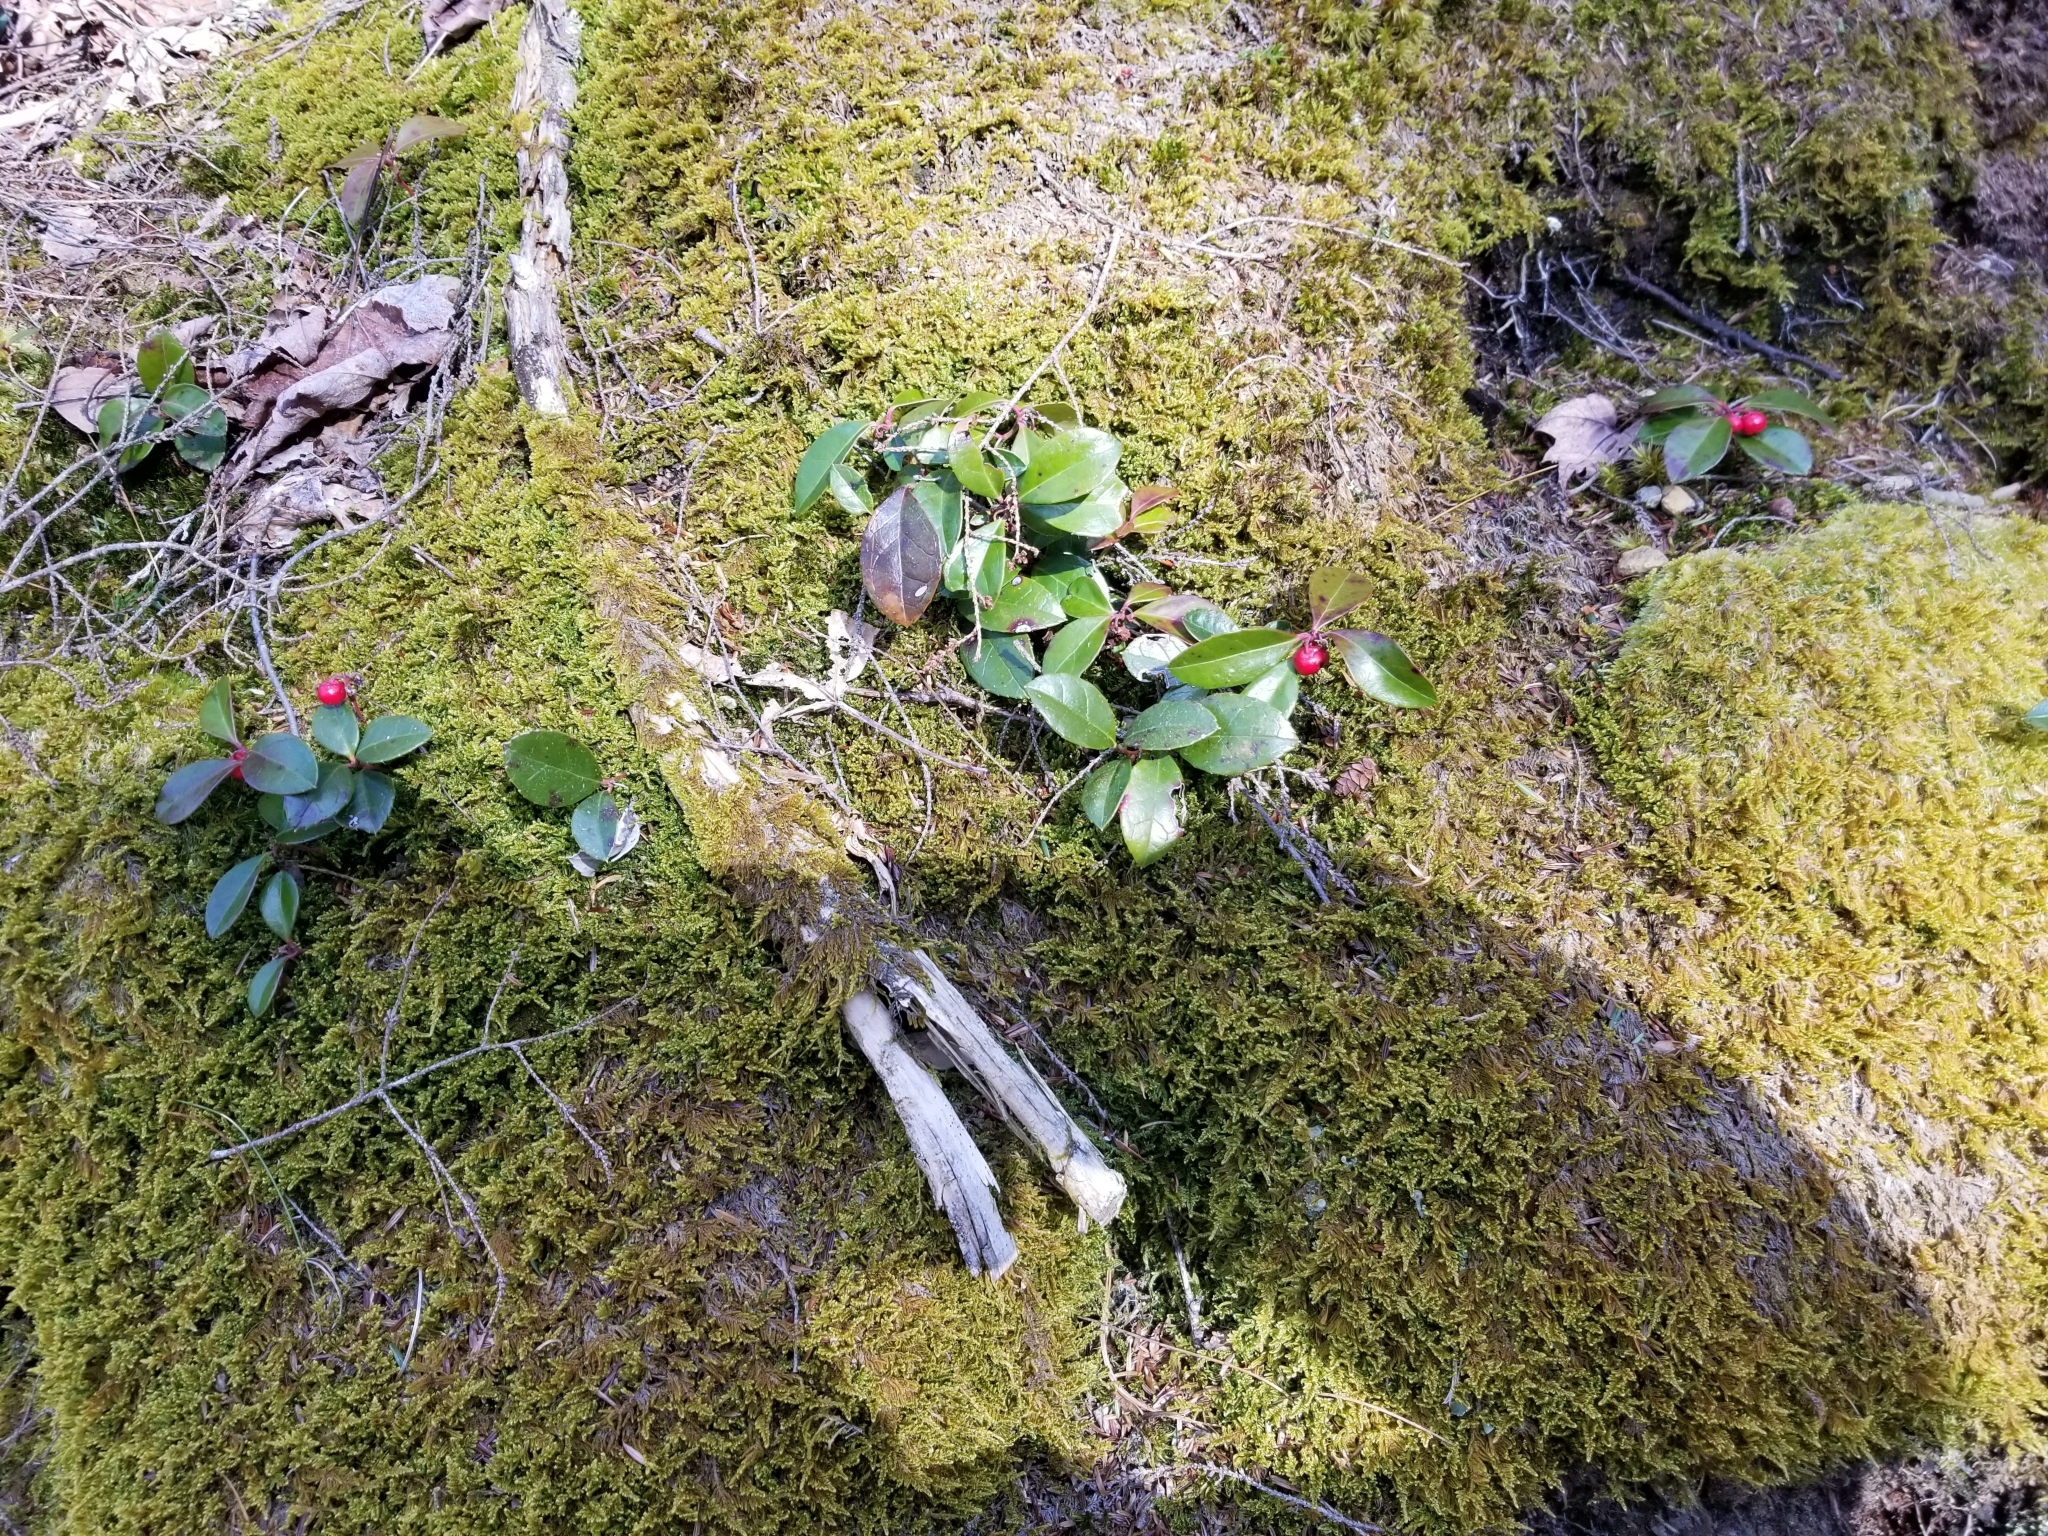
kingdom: Plantae
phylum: Tracheophyta
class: Magnoliopsida
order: Ericales
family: Ericaceae
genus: Gaultheria
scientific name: Gaultheria procumbens
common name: Checkerberry
